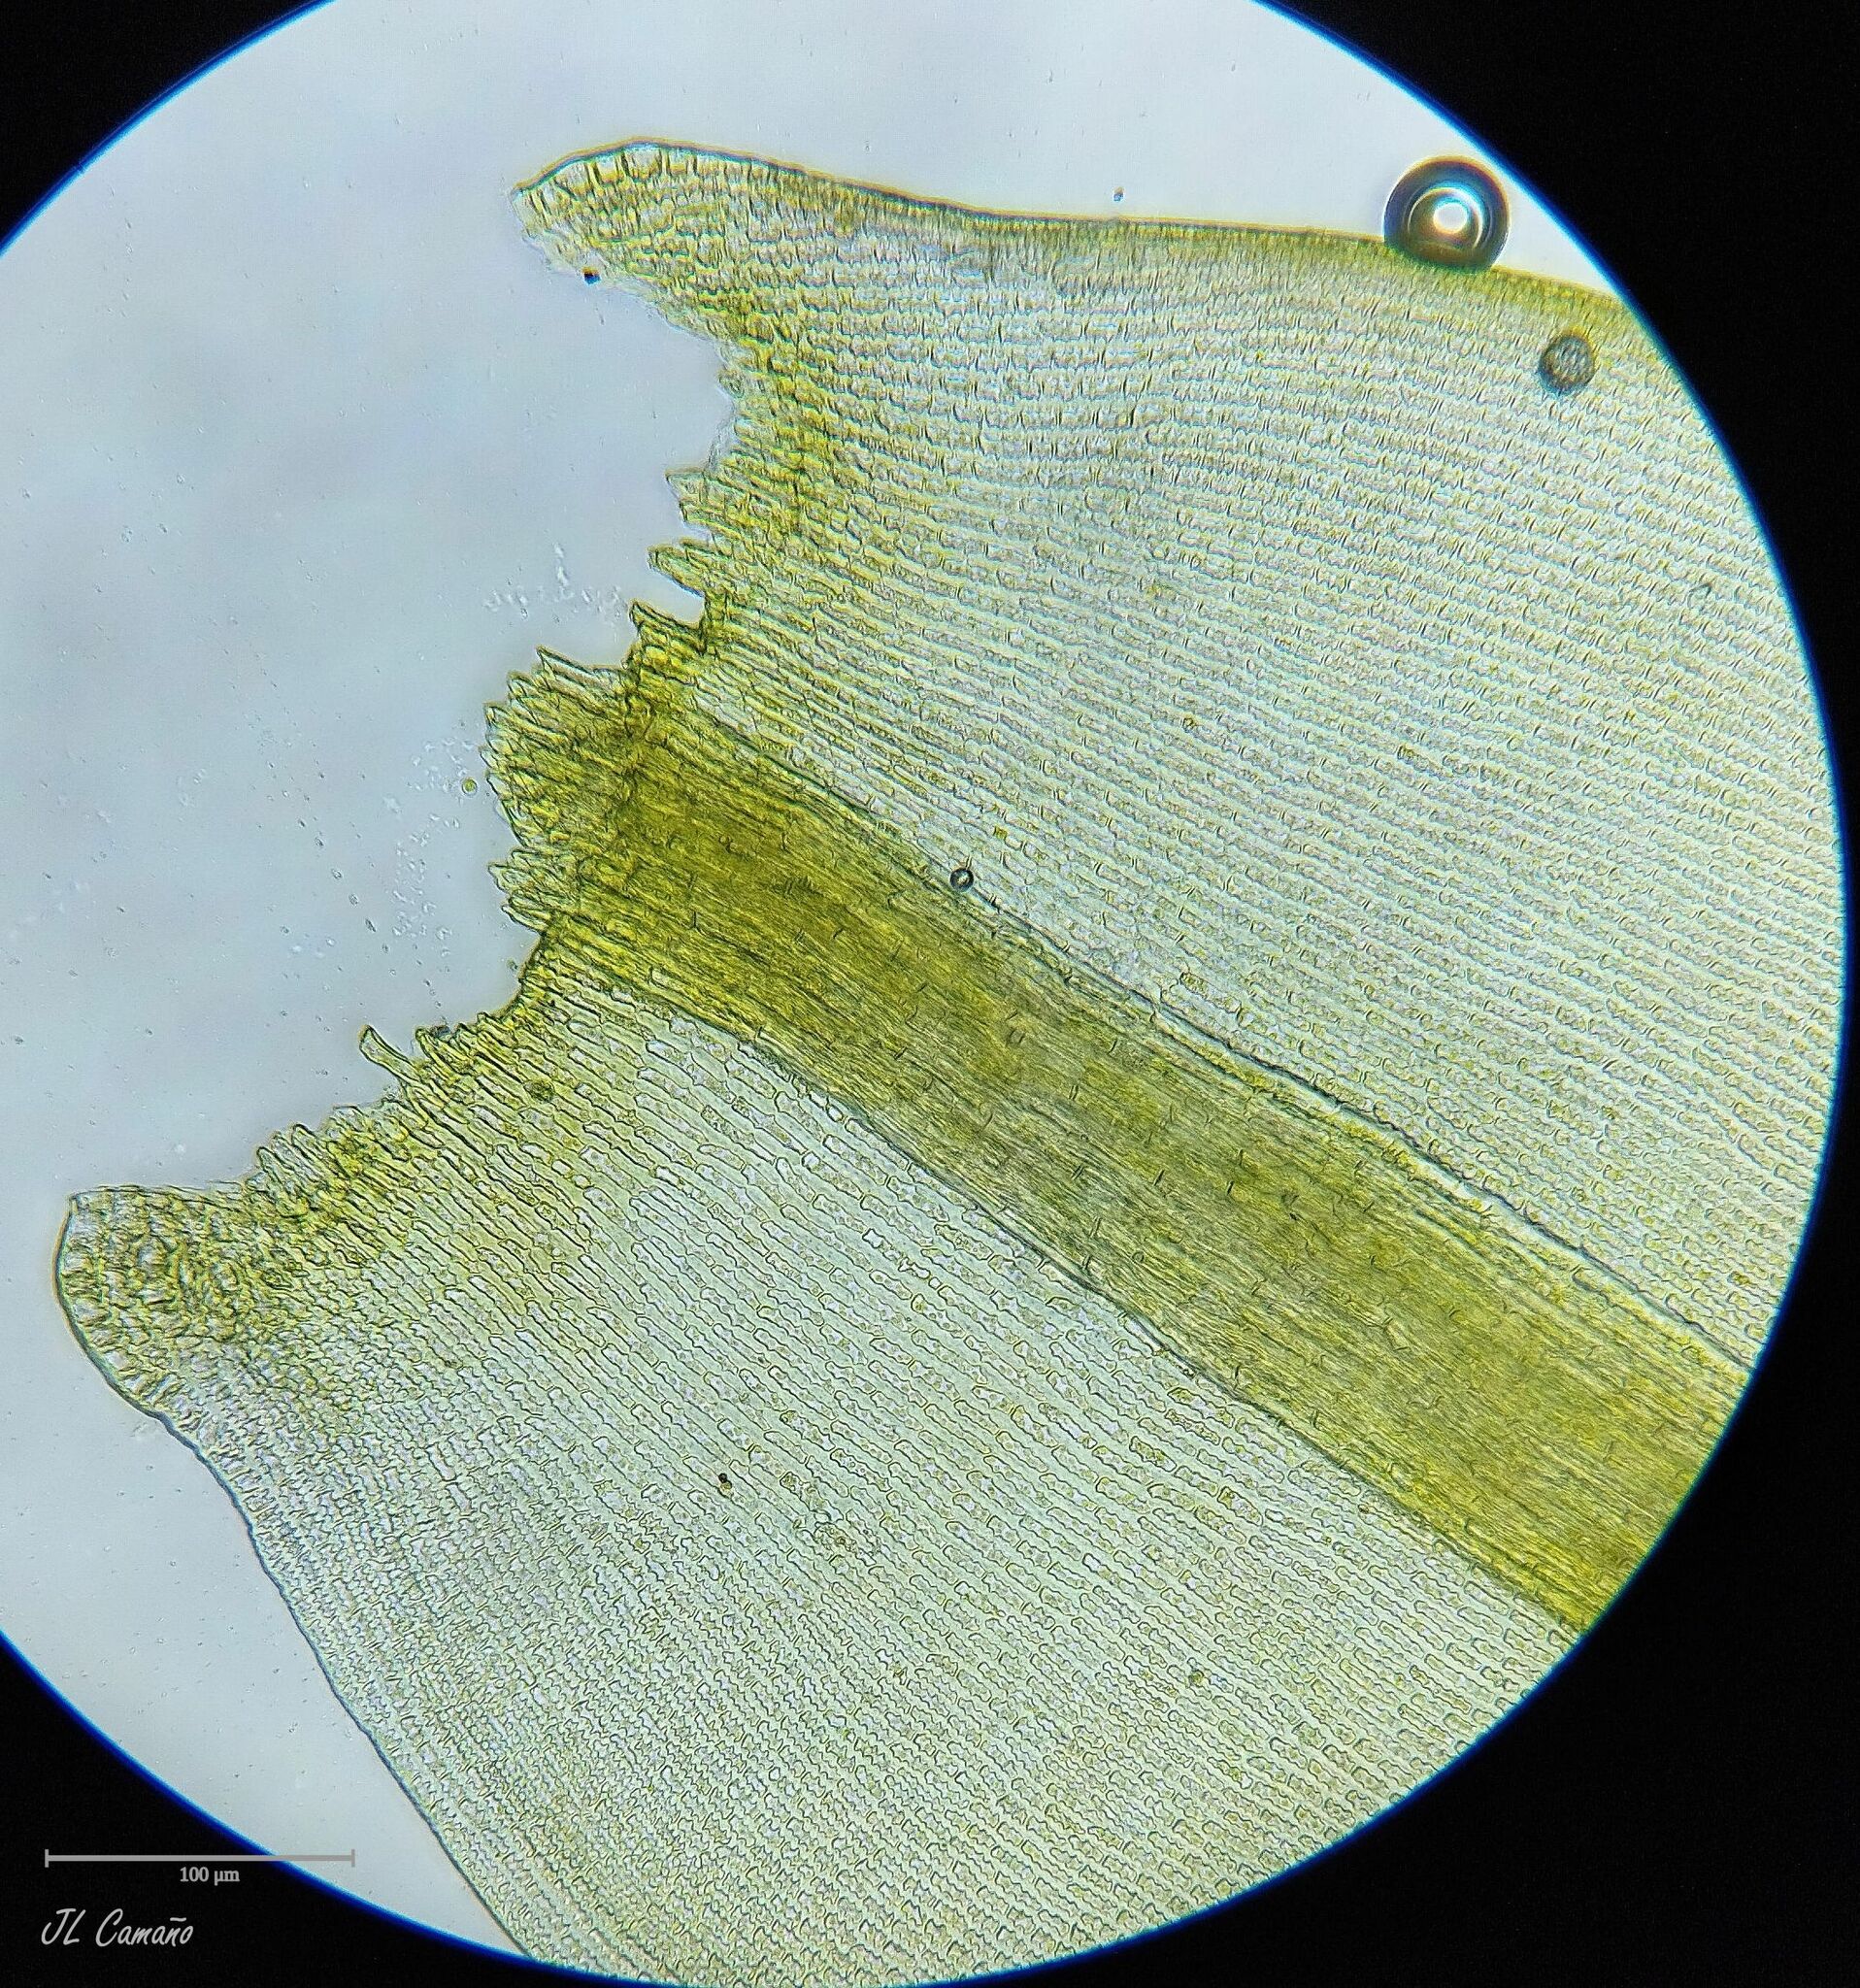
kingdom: Plantae
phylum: Bryophyta
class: Bryopsida
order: Grimmiales
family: Grimmiaceae
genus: Bucklandiella
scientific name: Bucklandiella sudetica
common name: Slender fringe-moss
